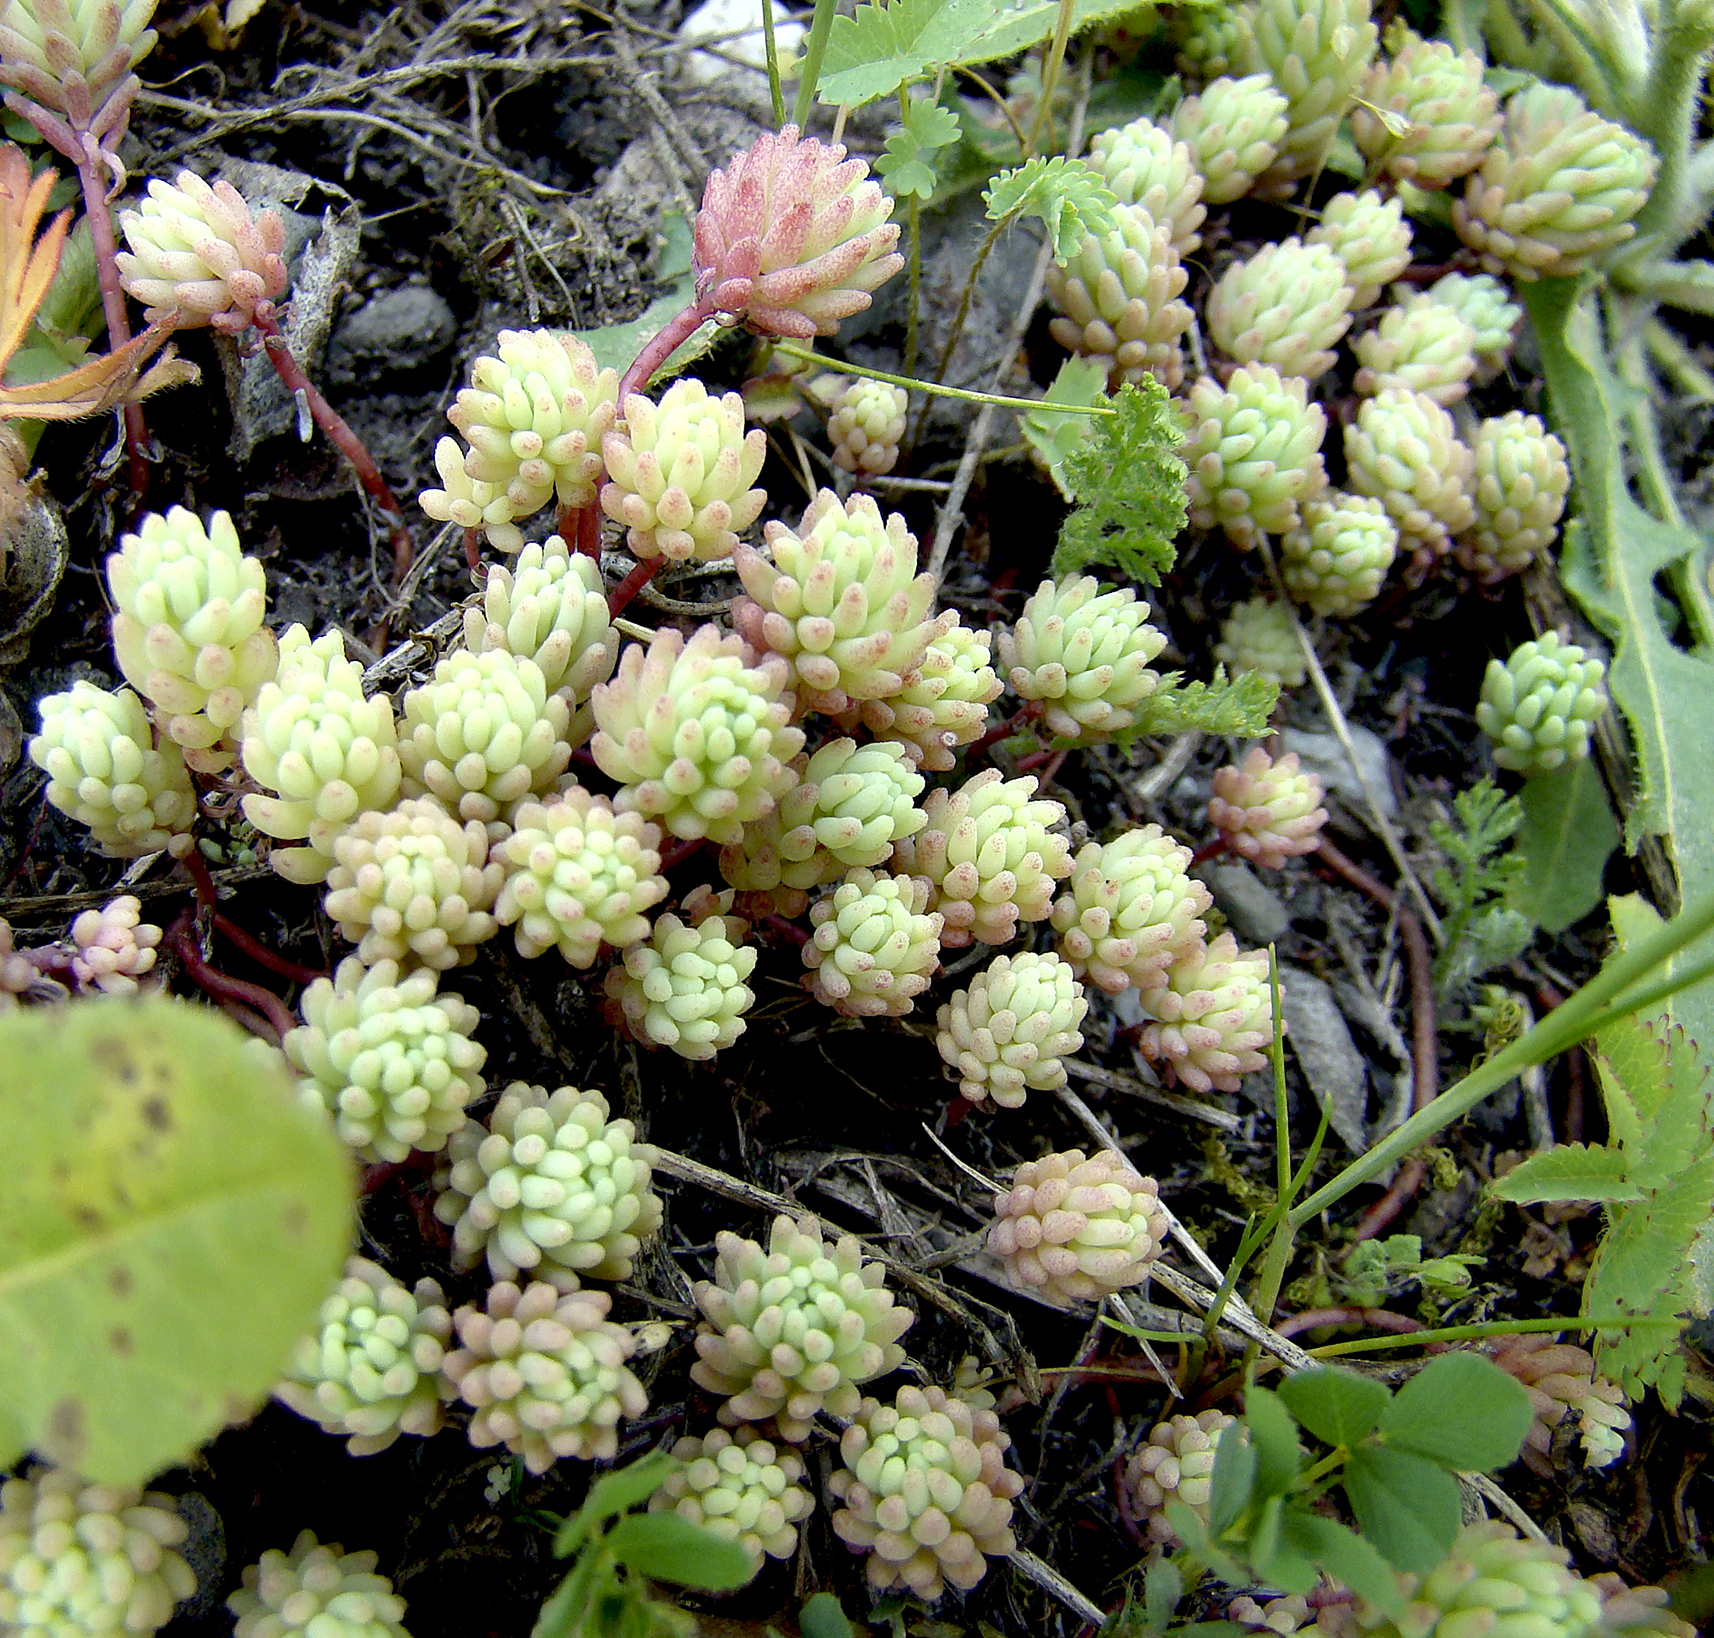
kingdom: Plantae
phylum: Tracheophyta
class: Magnoliopsida
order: Saxifragales
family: Crassulaceae
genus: Sedum
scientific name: Sedum pallidum
